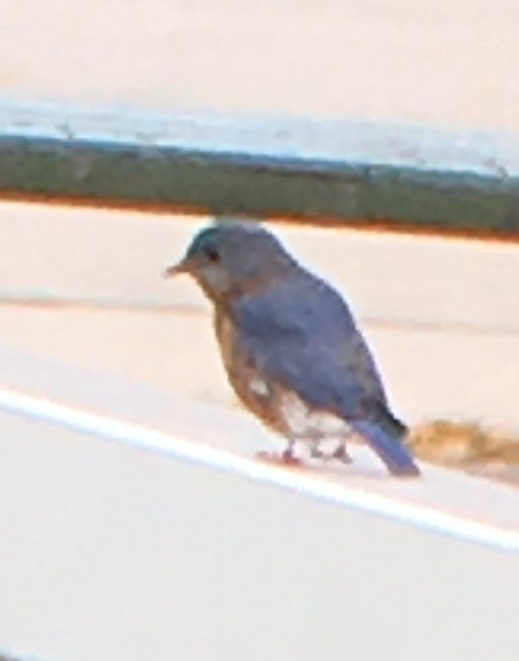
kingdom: Animalia
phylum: Chordata
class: Aves
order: Passeriformes
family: Turdidae
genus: Sialia
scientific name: Sialia sialis
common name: Eastern bluebird
